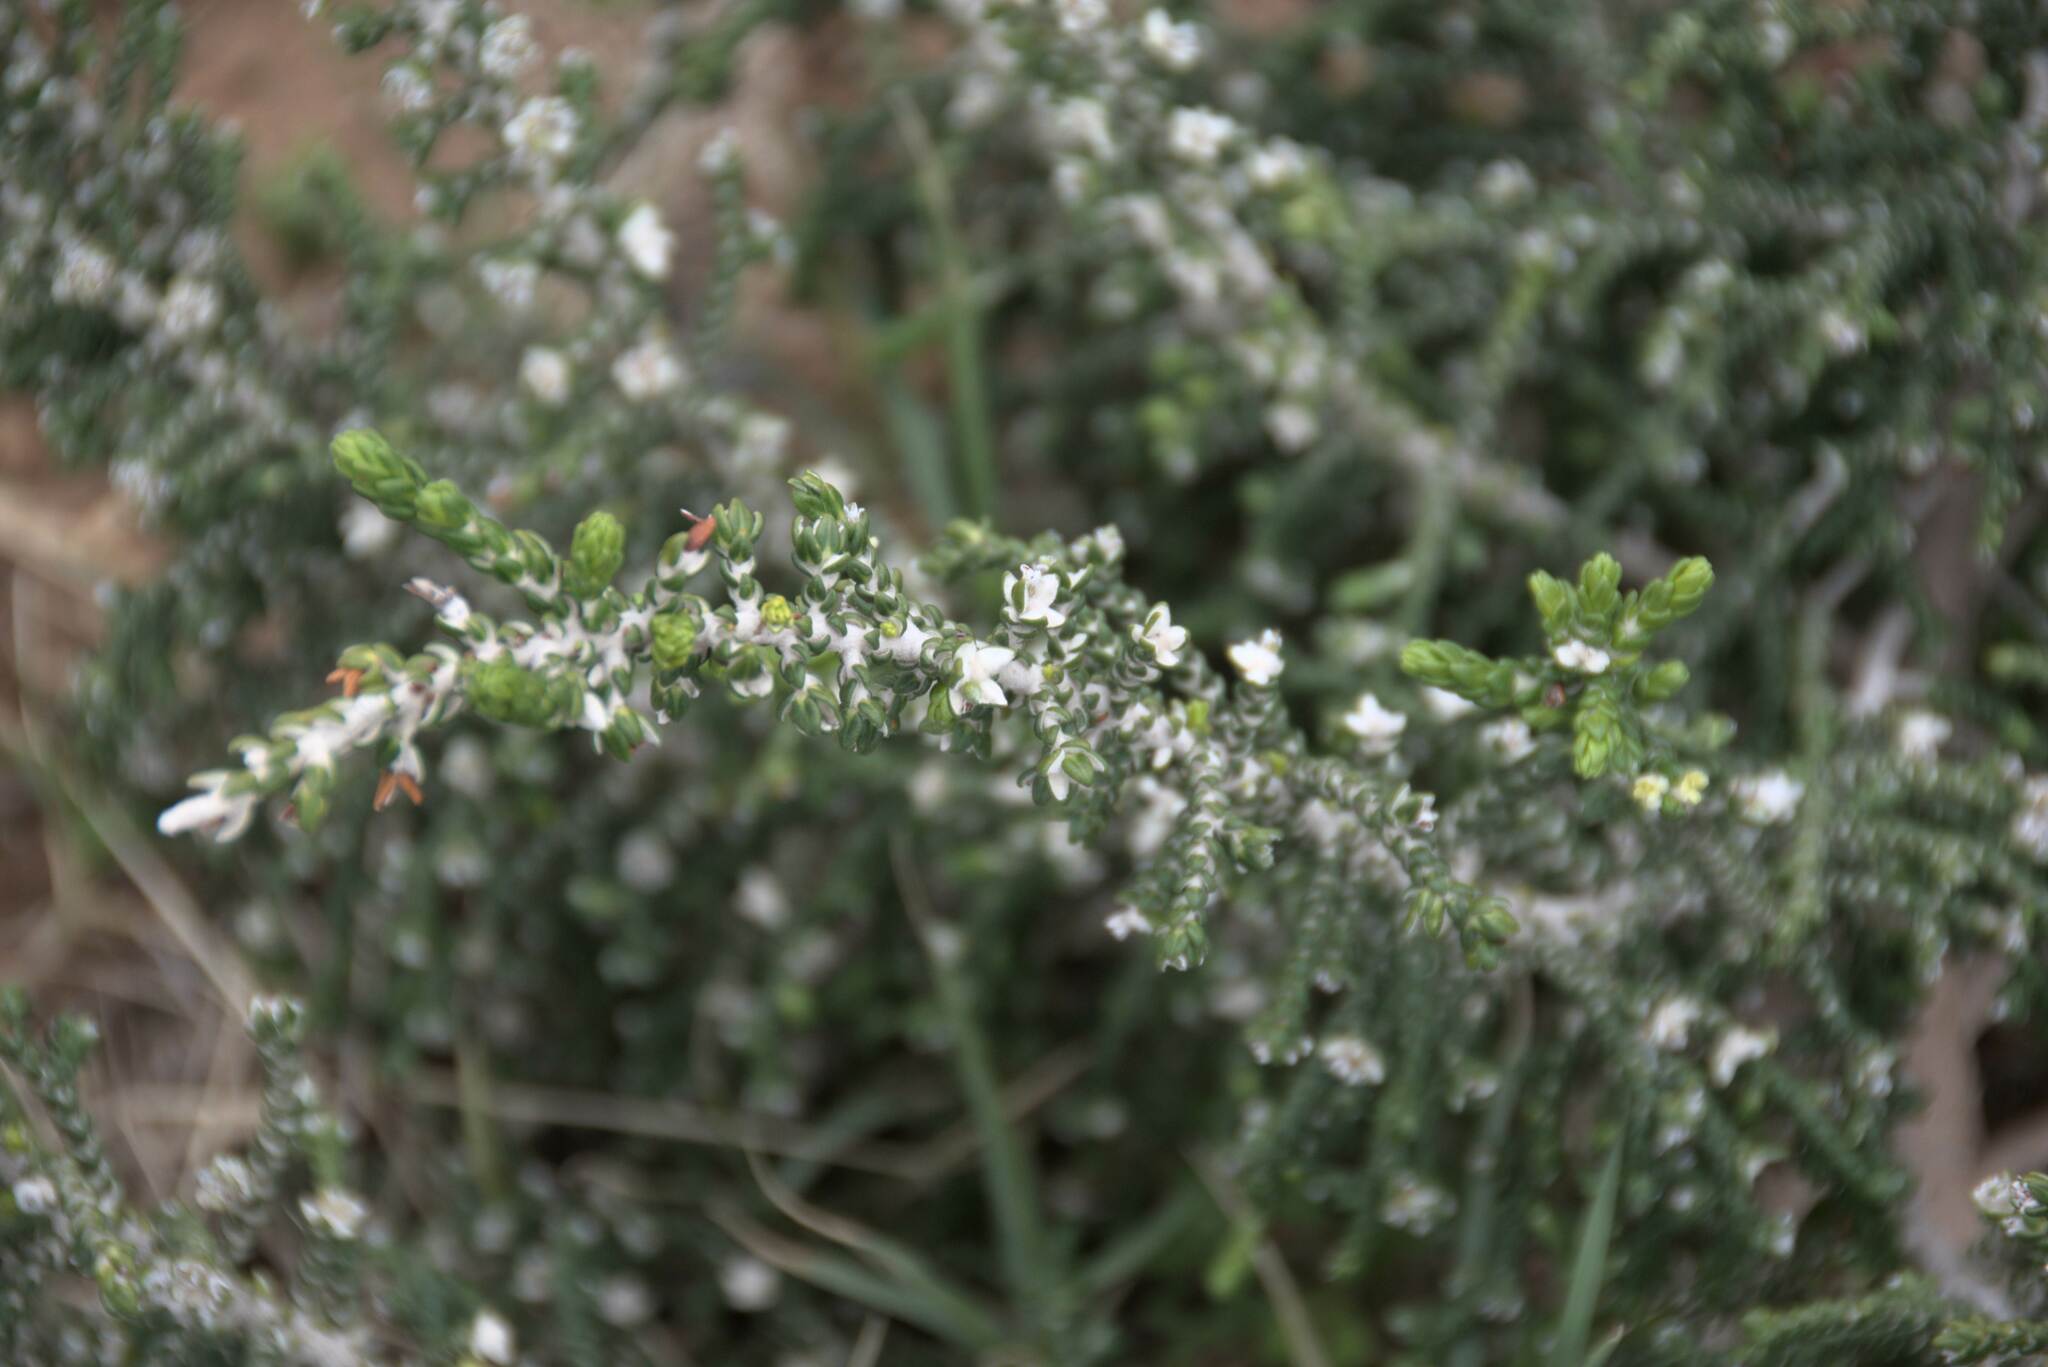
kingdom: Plantae
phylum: Tracheophyta
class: Magnoliopsida
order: Malvales
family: Thymelaeaceae
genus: Thymelaea
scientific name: Thymelaea hirsuta
